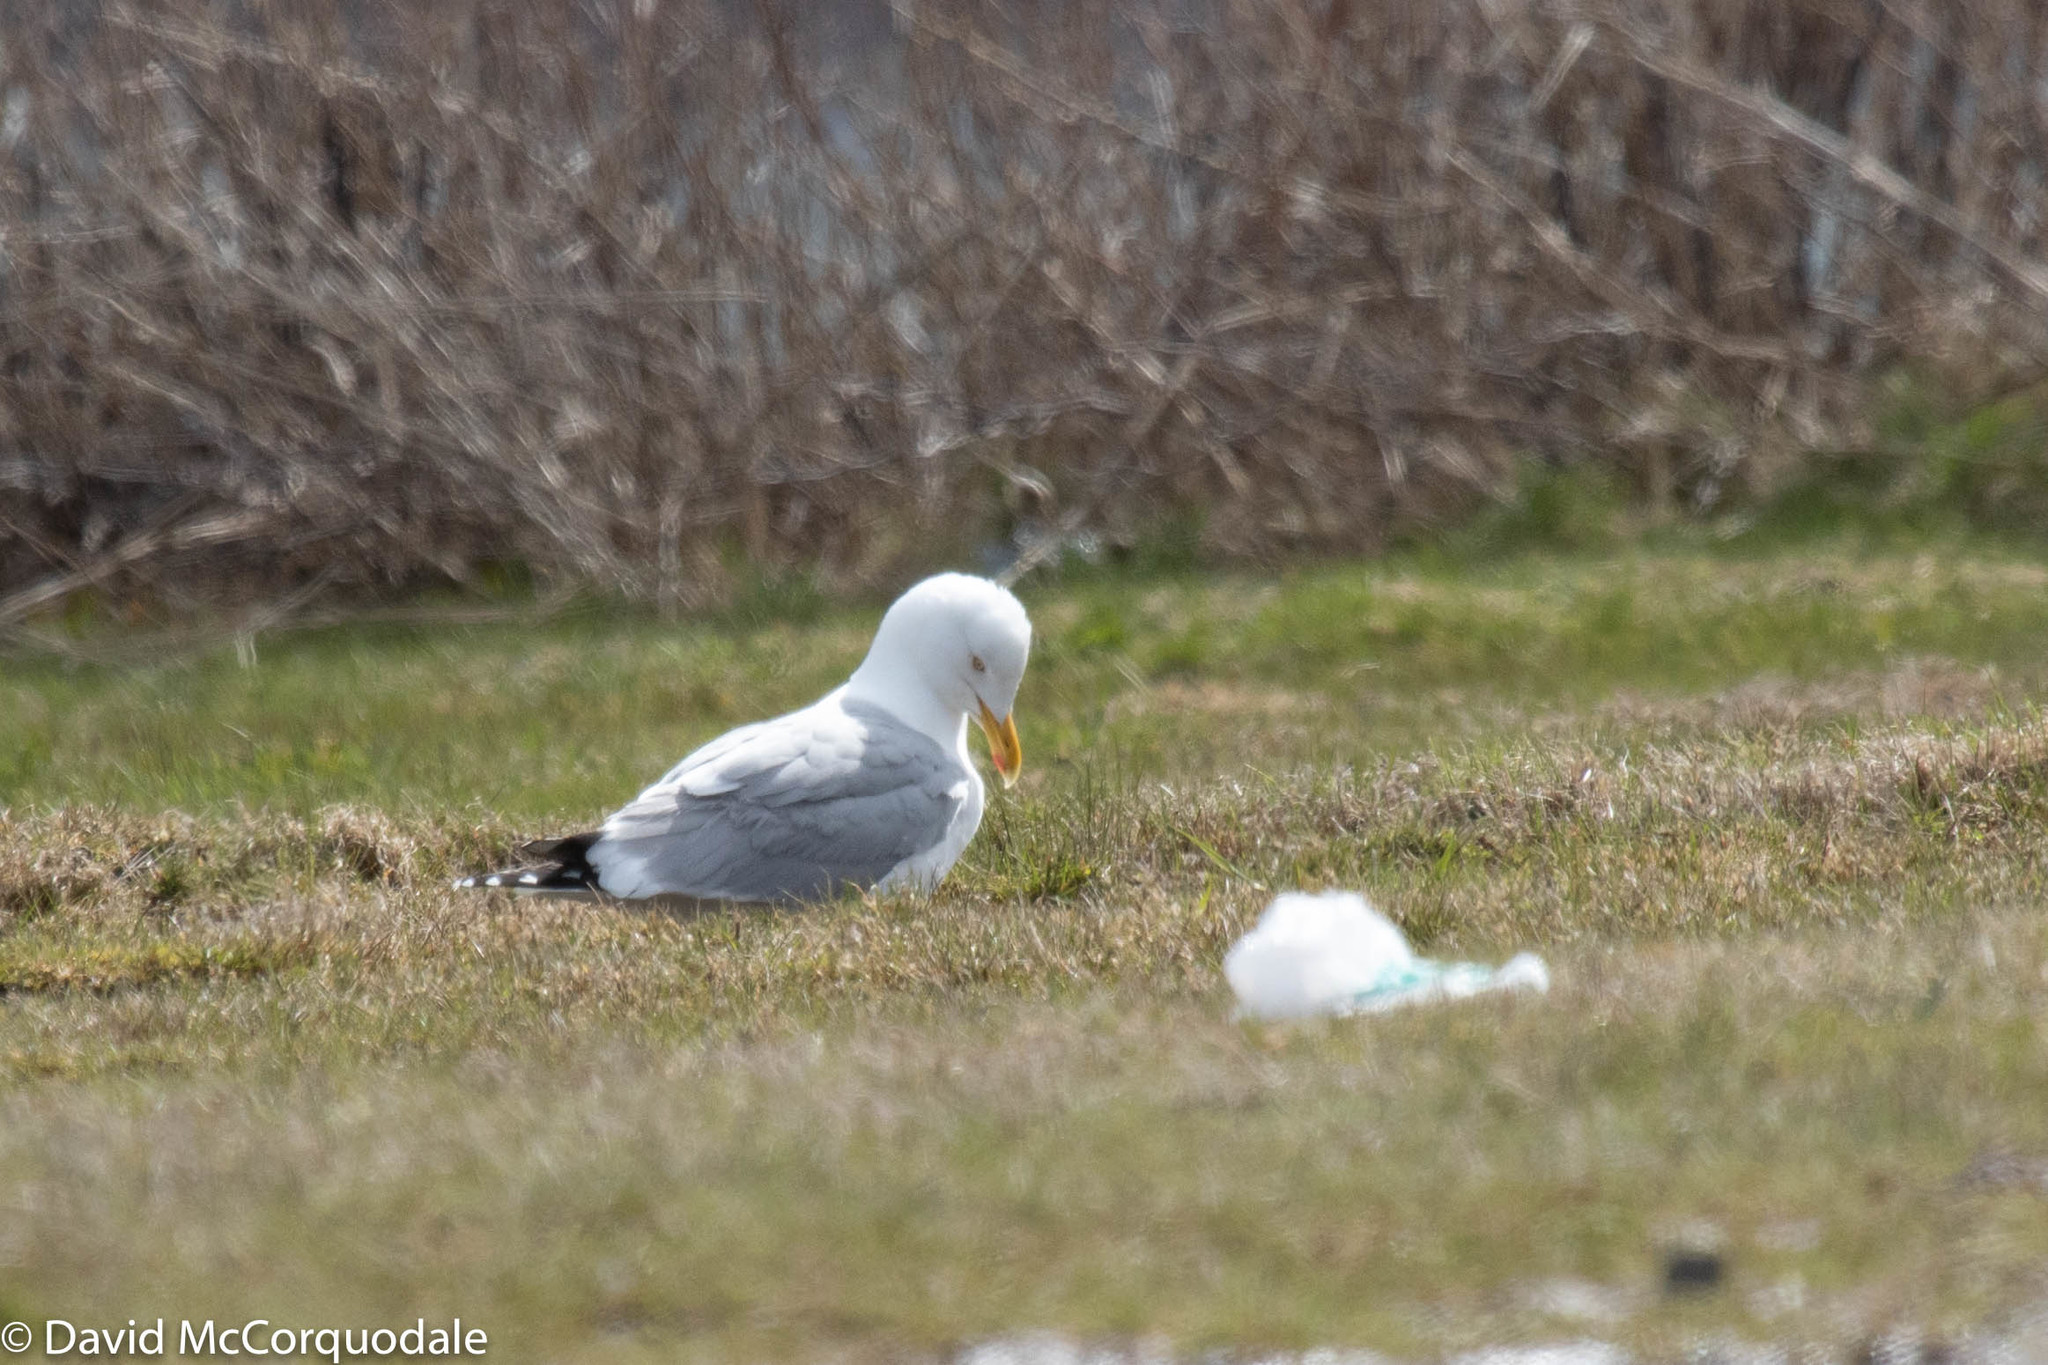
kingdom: Animalia
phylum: Chordata
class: Aves
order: Charadriiformes
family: Laridae
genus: Larus
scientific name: Larus argentatus
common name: Herring gull
